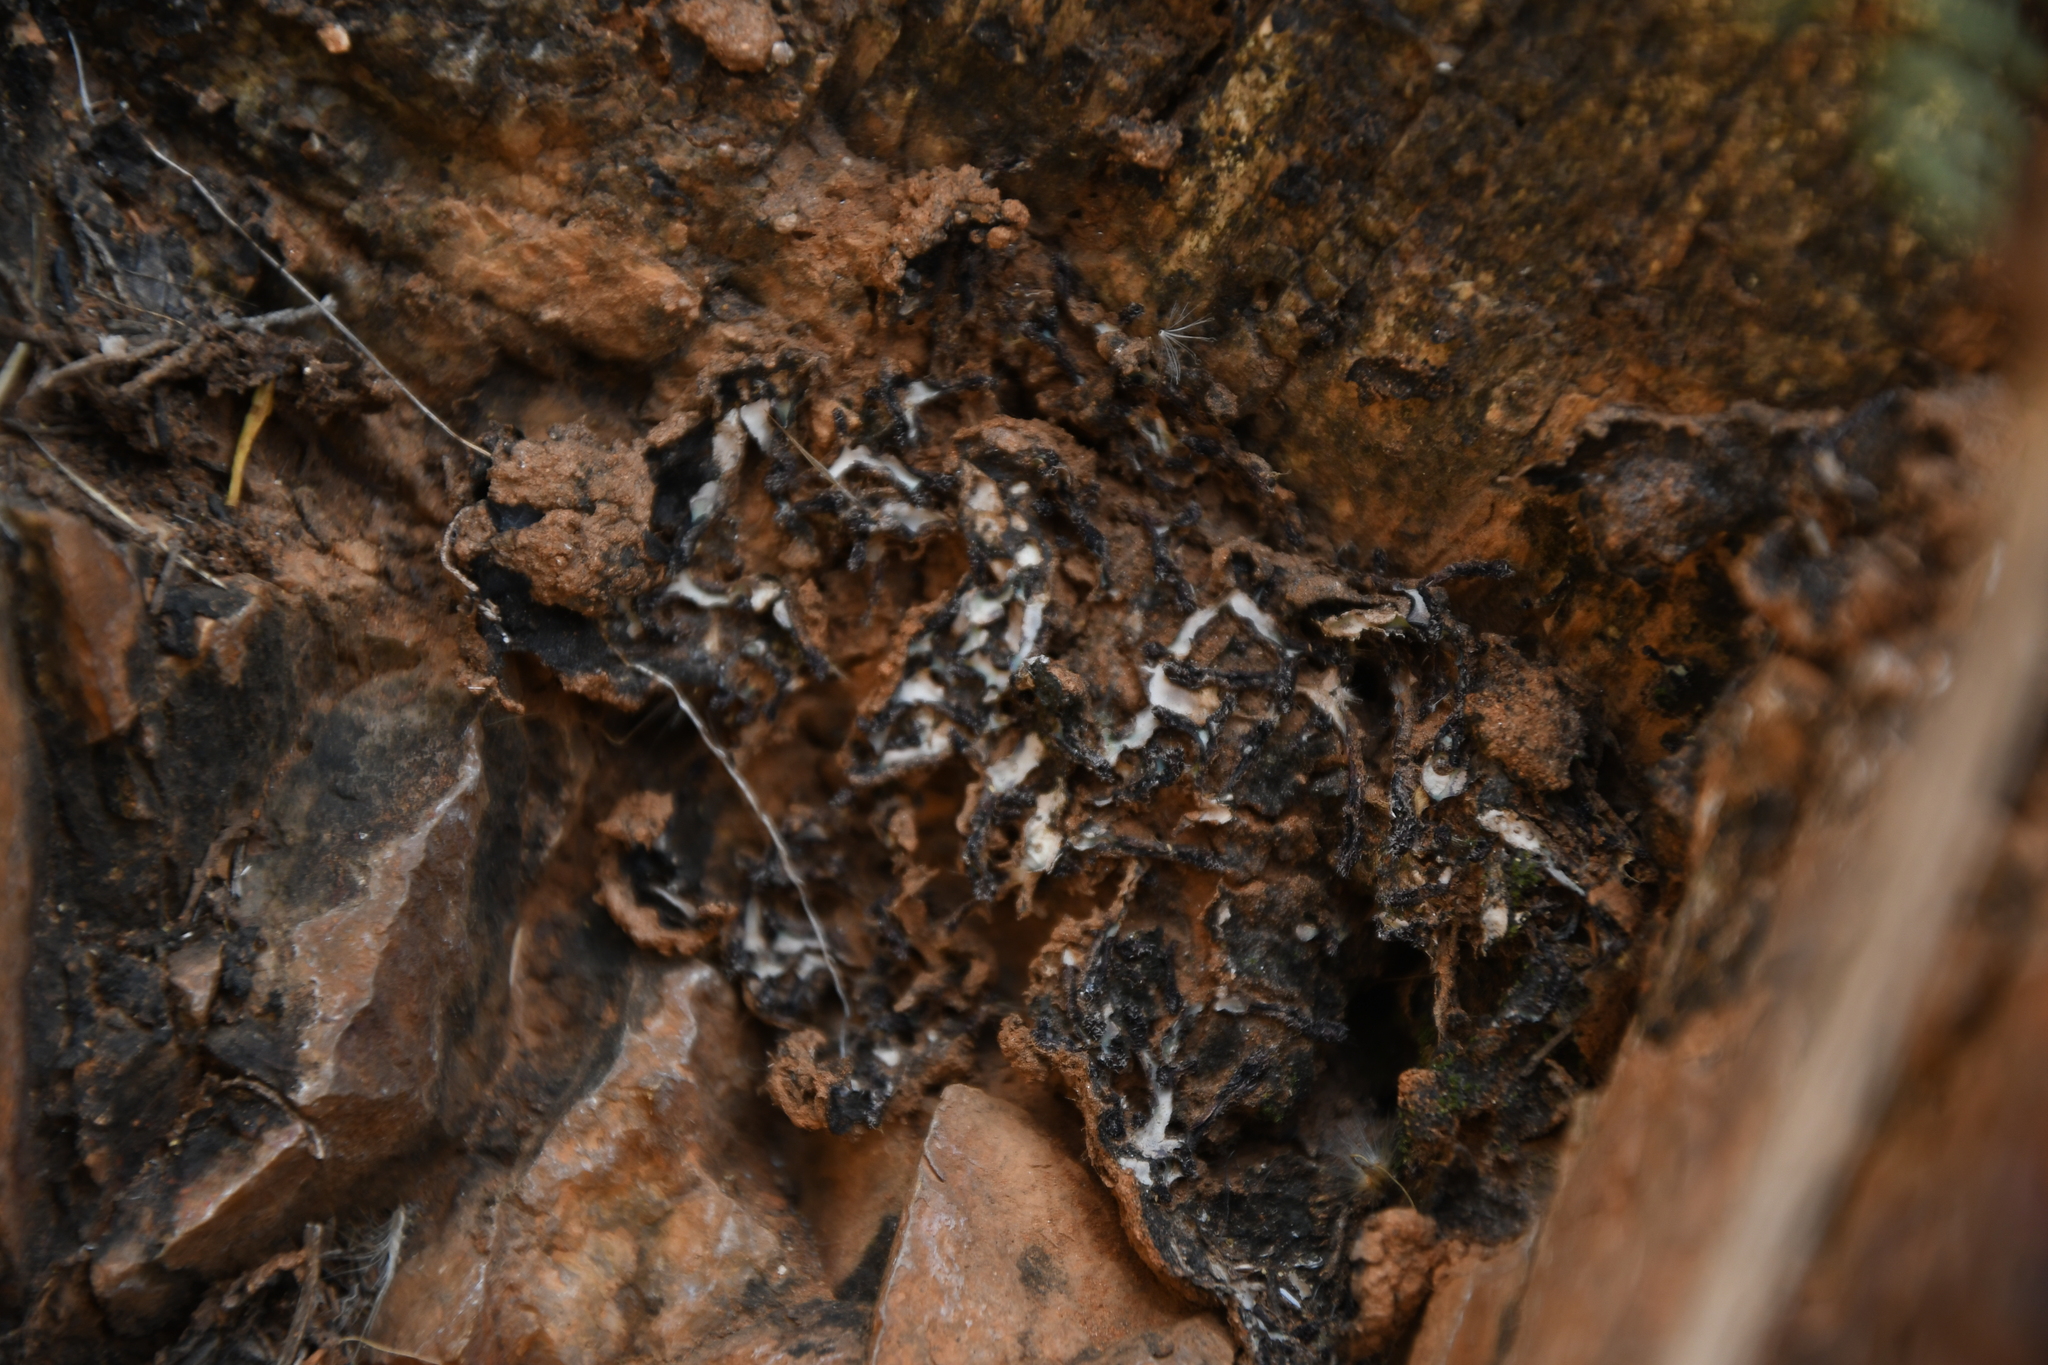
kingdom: Plantae
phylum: Marchantiophyta
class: Marchantiopsida
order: Marchantiales
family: Aytoniaceae
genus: Plagiochasma
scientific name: Plagiochasma rupestre
